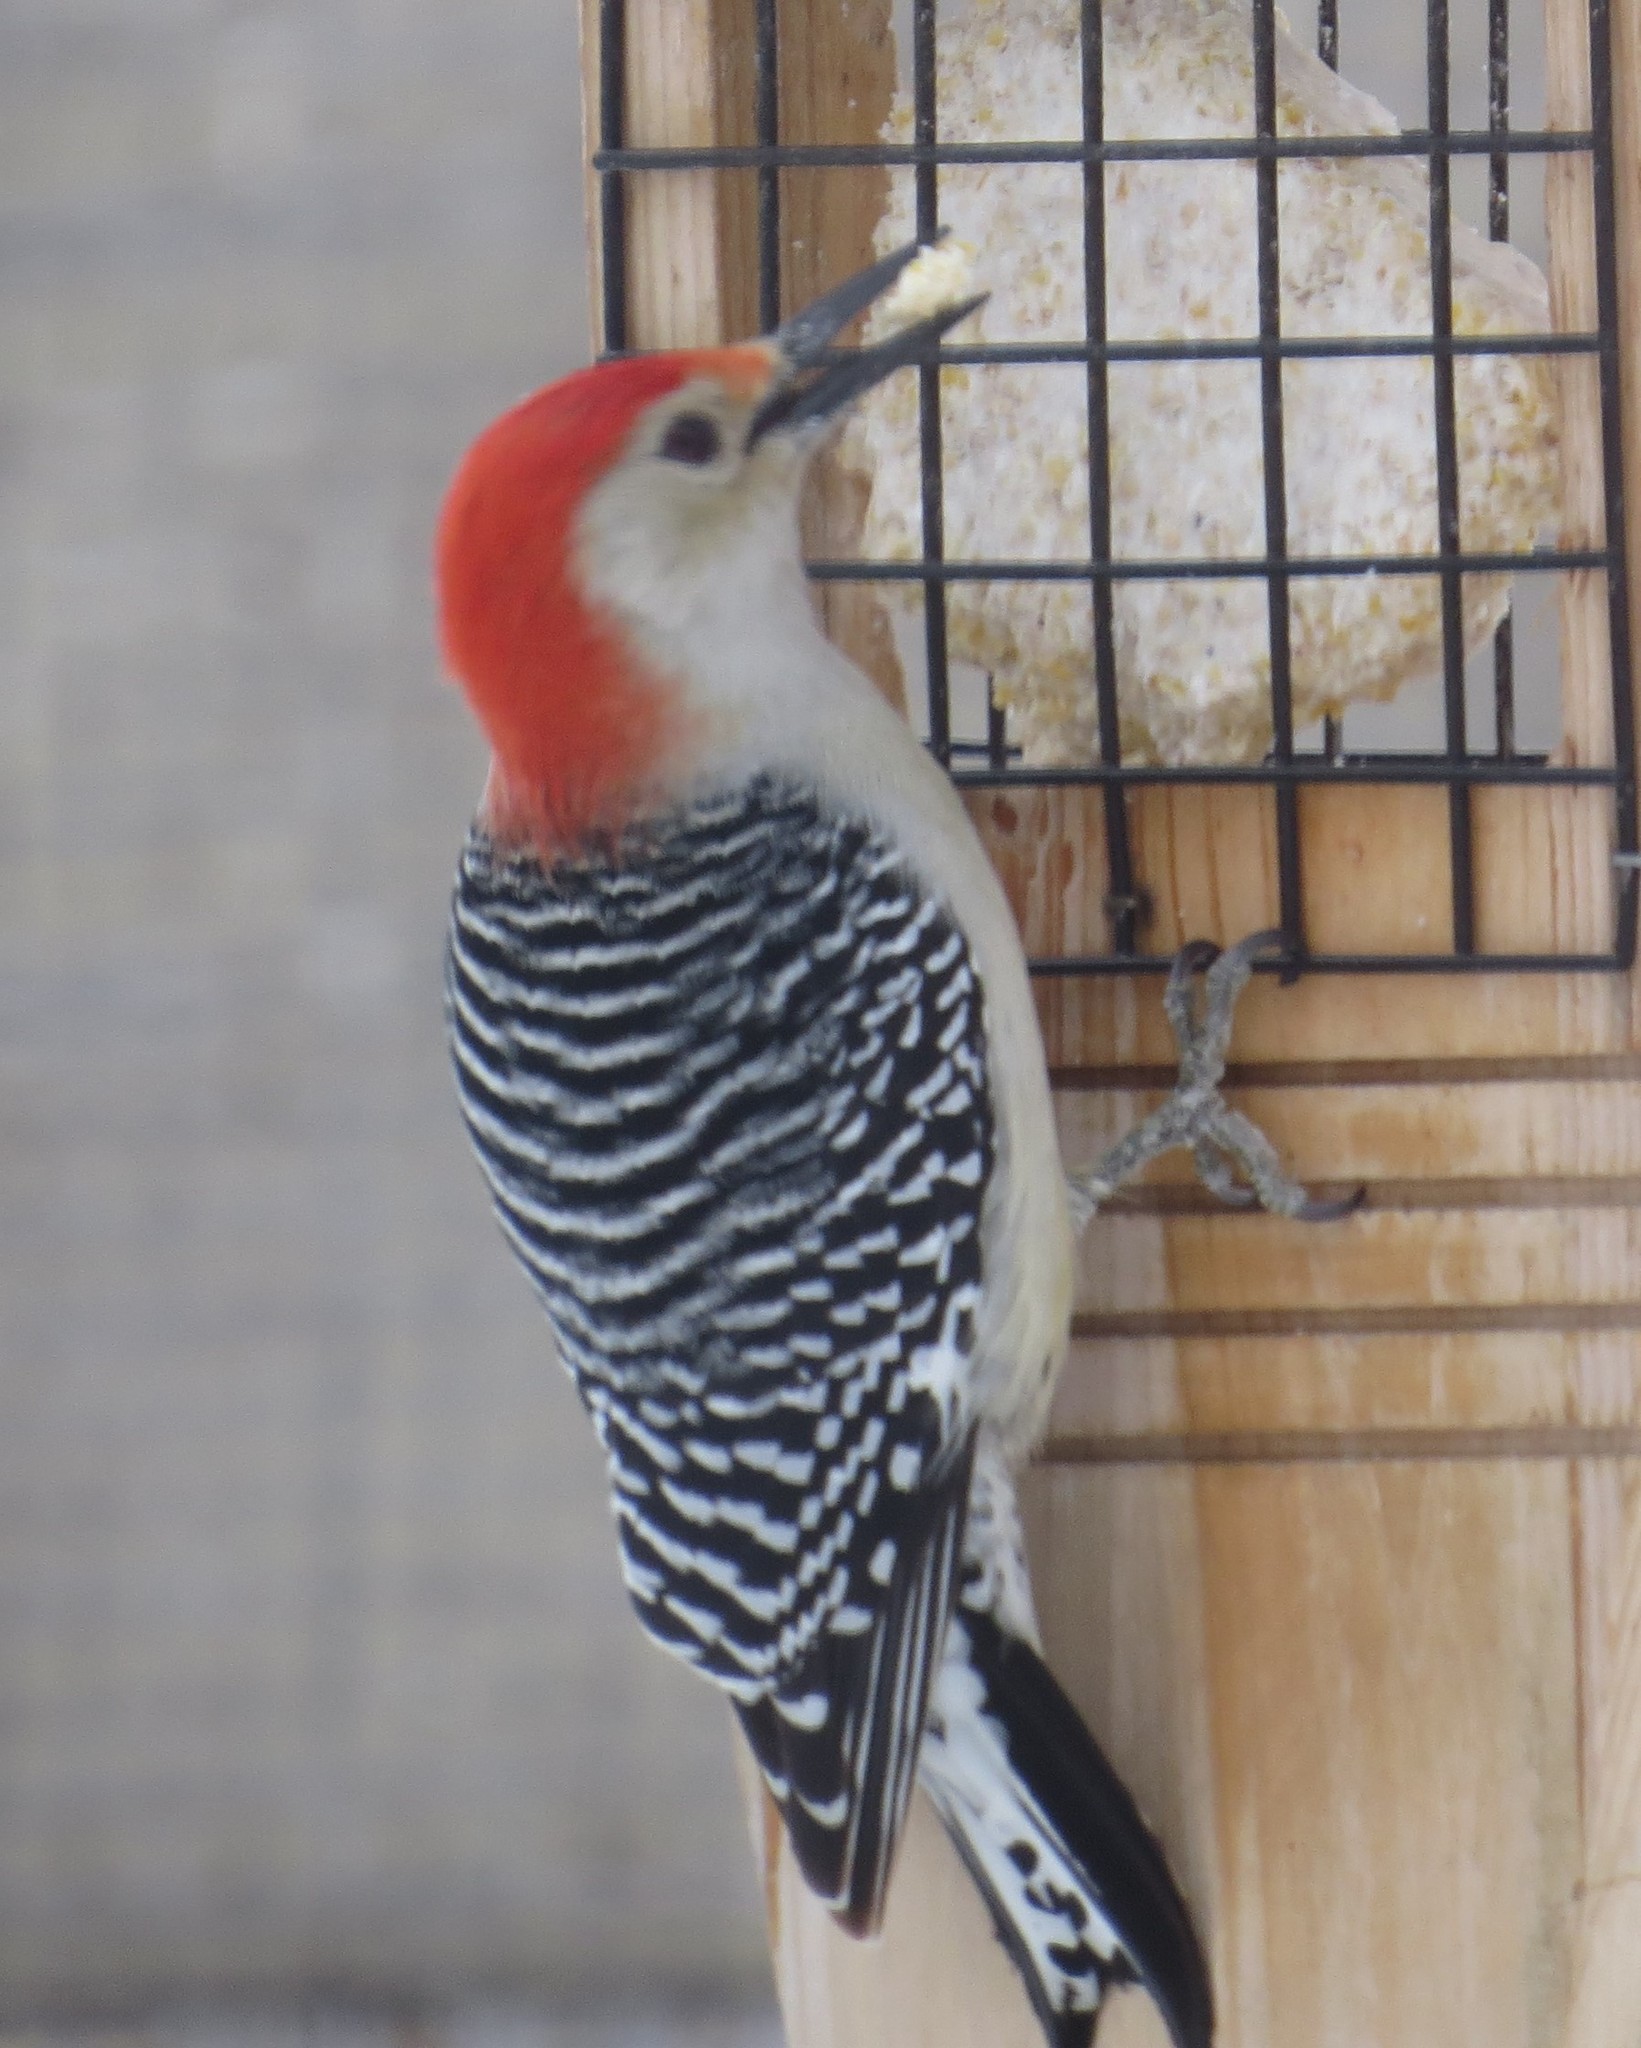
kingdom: Animalia
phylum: Chordata
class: Aves
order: Piciformes
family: Picidae
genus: Melanerpes
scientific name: Melanerpes carolinus
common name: Red-bellied woodpecker
